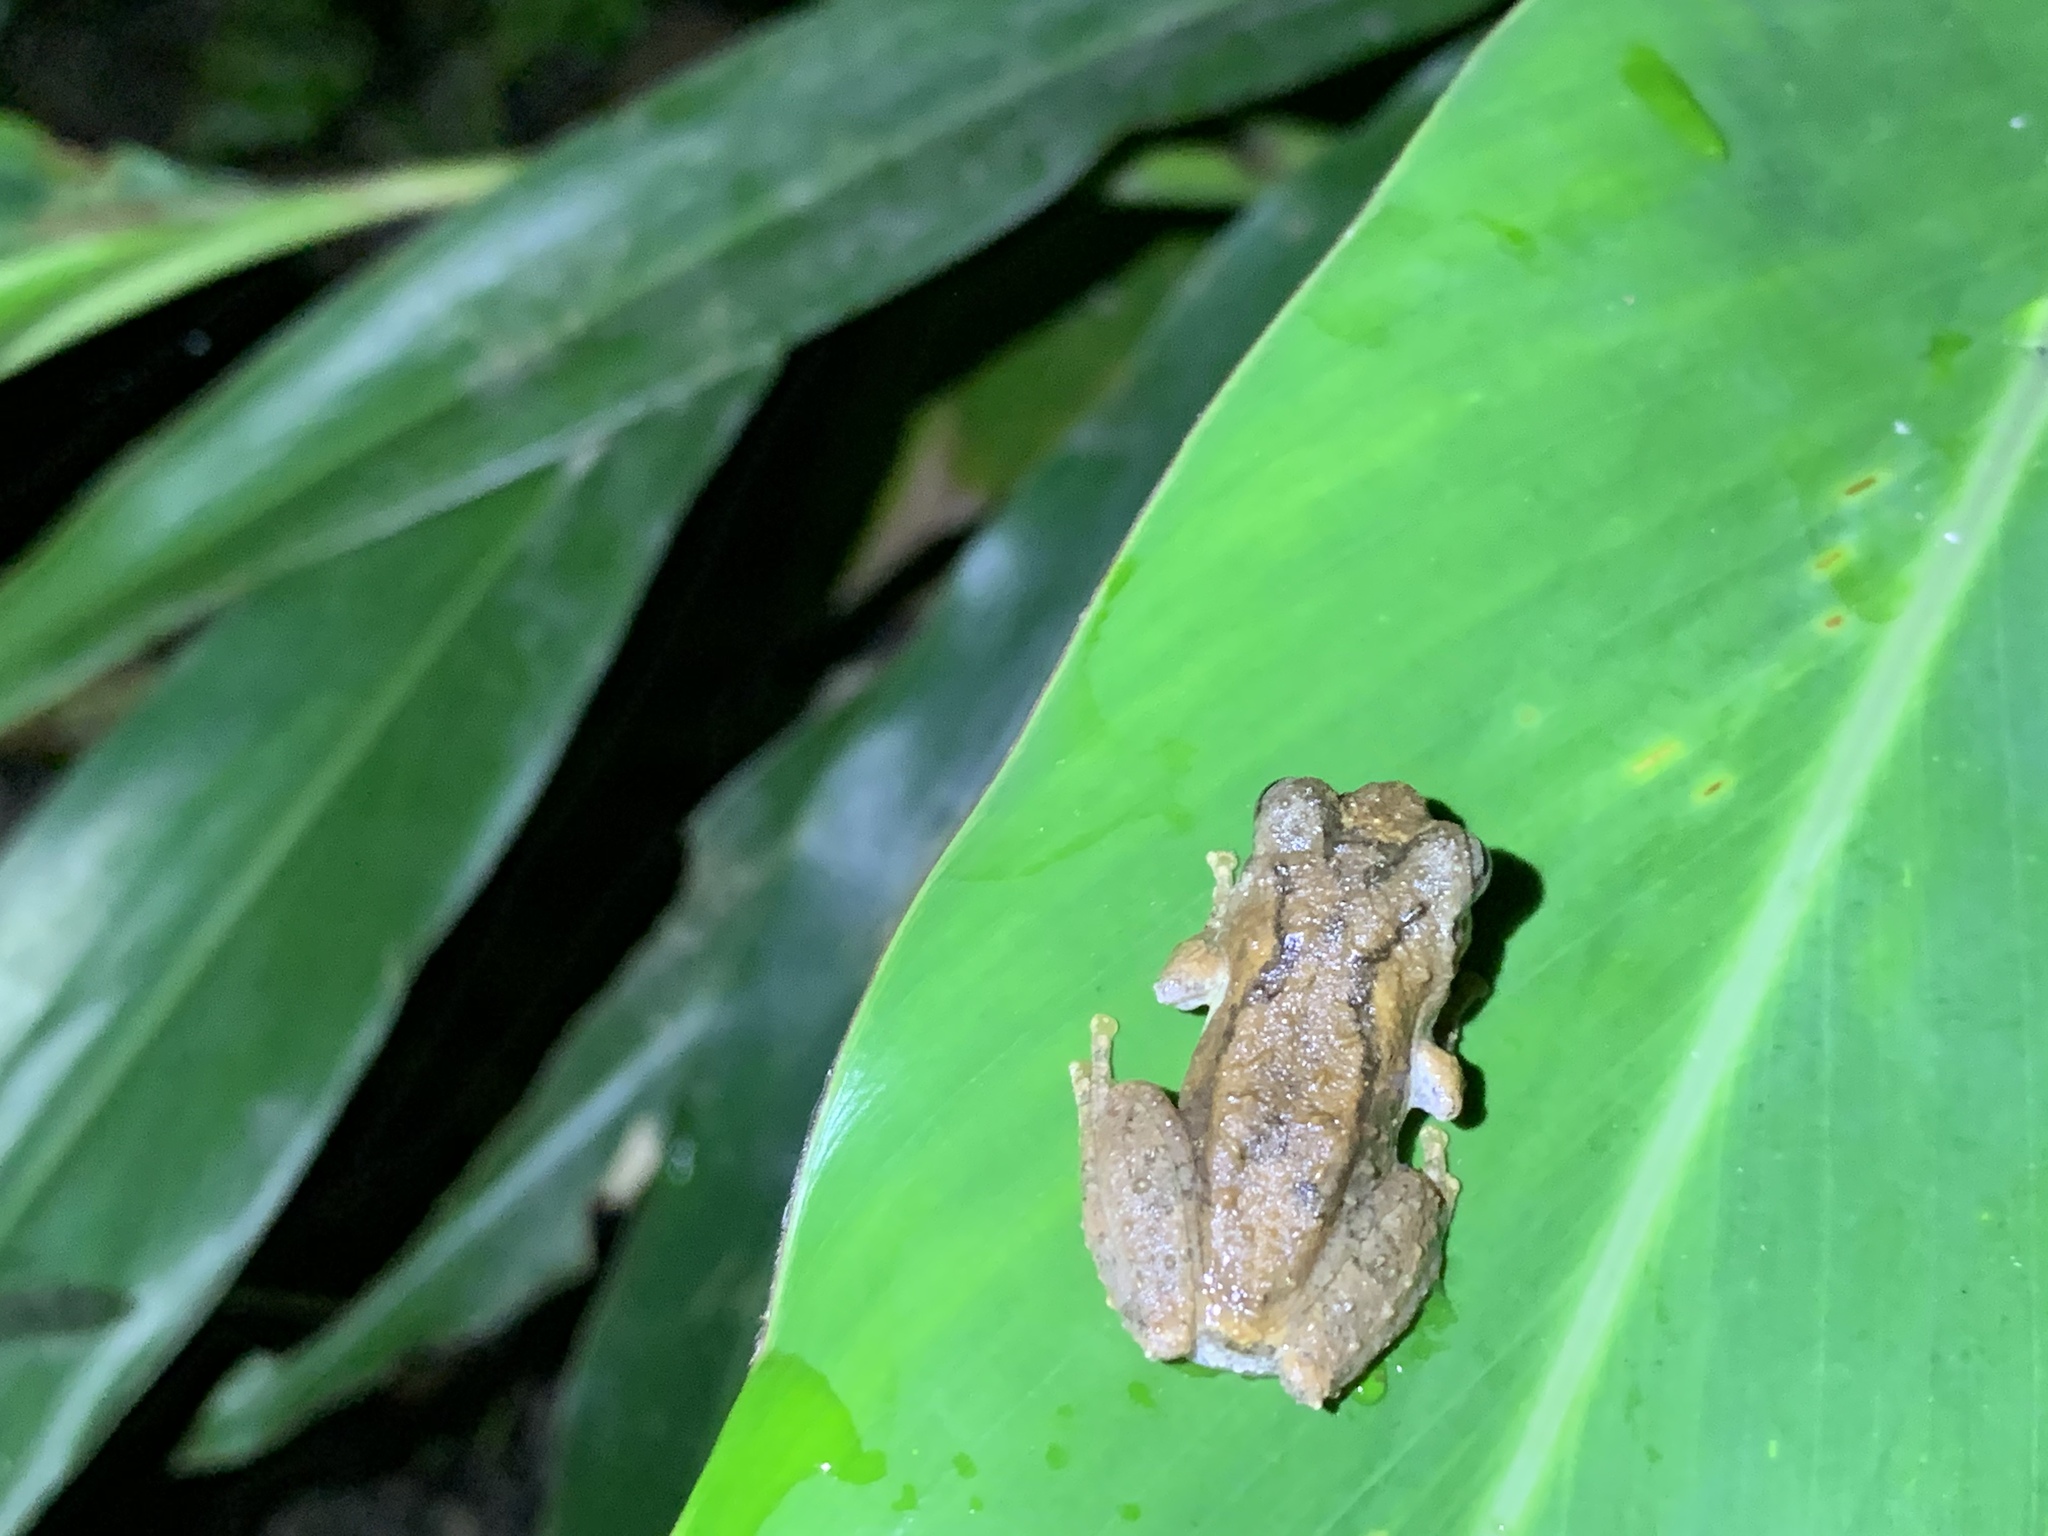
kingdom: Animalia
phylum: Chordata
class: Amphibia
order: Anura
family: Rhacophoridae
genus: Kurixalus
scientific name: Kurixalus idiootocus
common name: Temple treefrog
